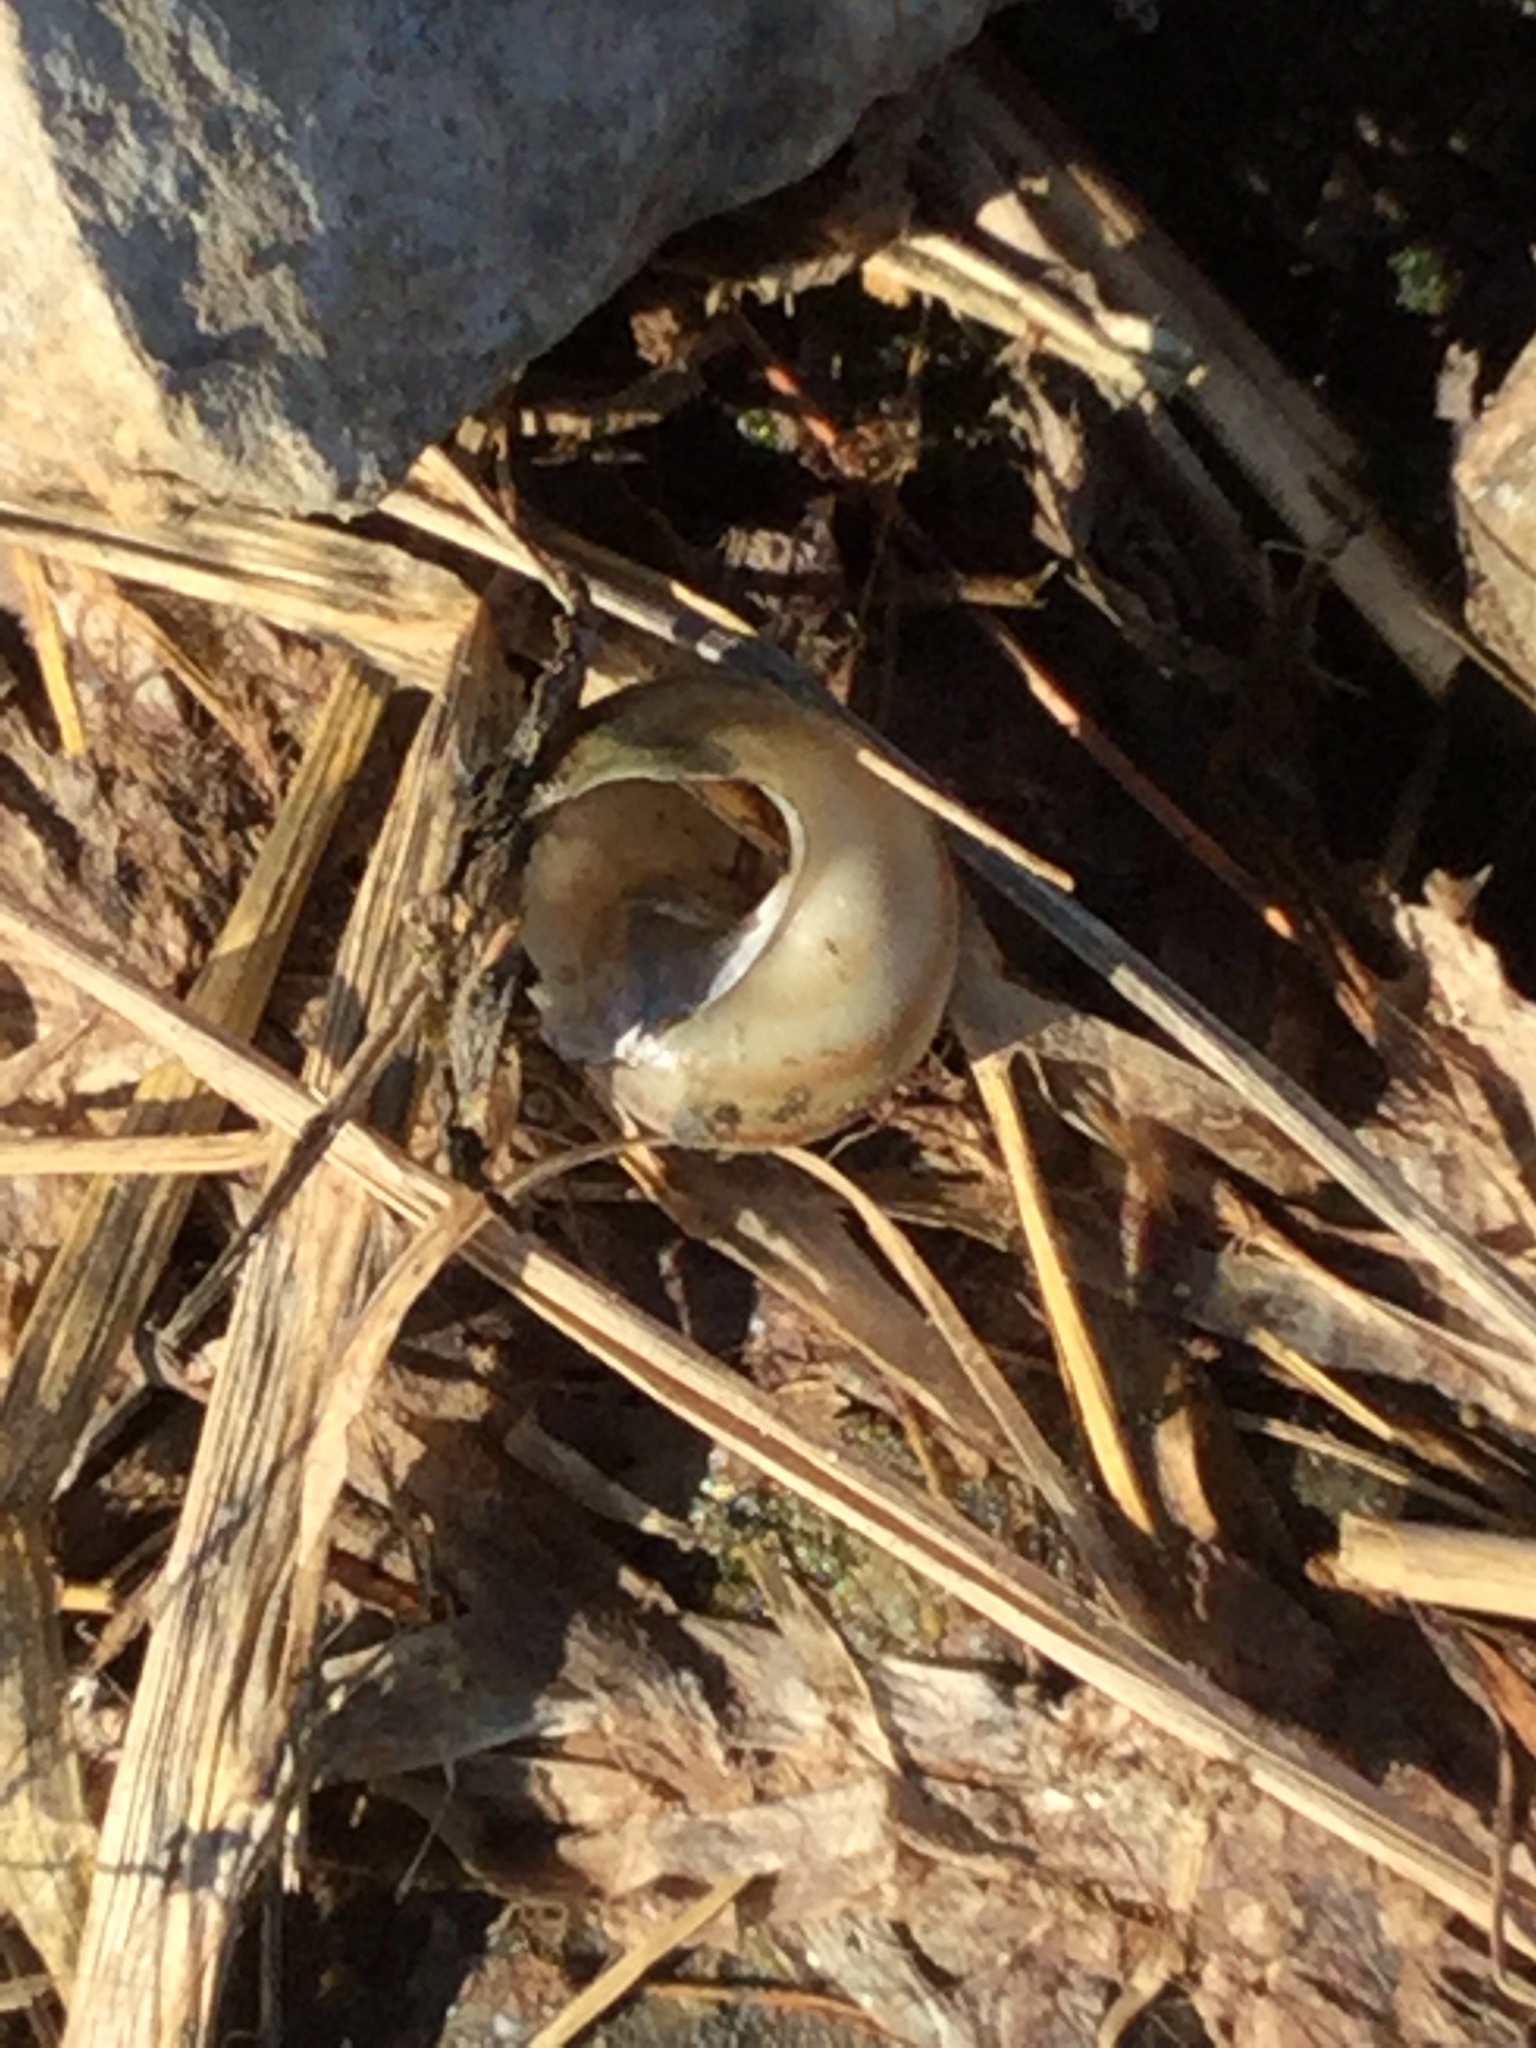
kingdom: Animalia
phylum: Mollusca
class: Gastropoda
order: Architaenioglossa
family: Viviparidae
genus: Callinina
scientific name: Callinina georgiana
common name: Banded mystery snail
